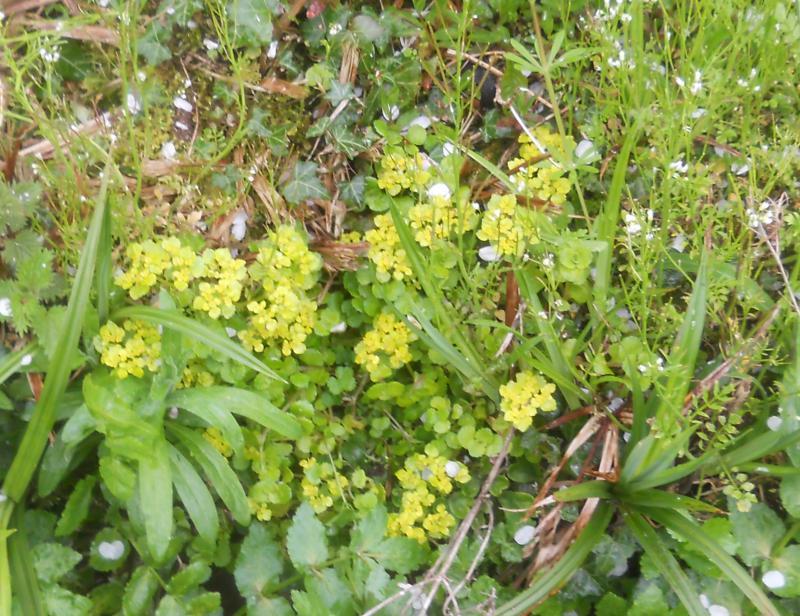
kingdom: Plantae
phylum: Tracheophyta
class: Magnoliopsida
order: Saxifragales
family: Saxifragaceae
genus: Chrysosplenium
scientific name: Chrysosplenium oppositifolium
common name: Opposite-leaved golden-saxifrage
